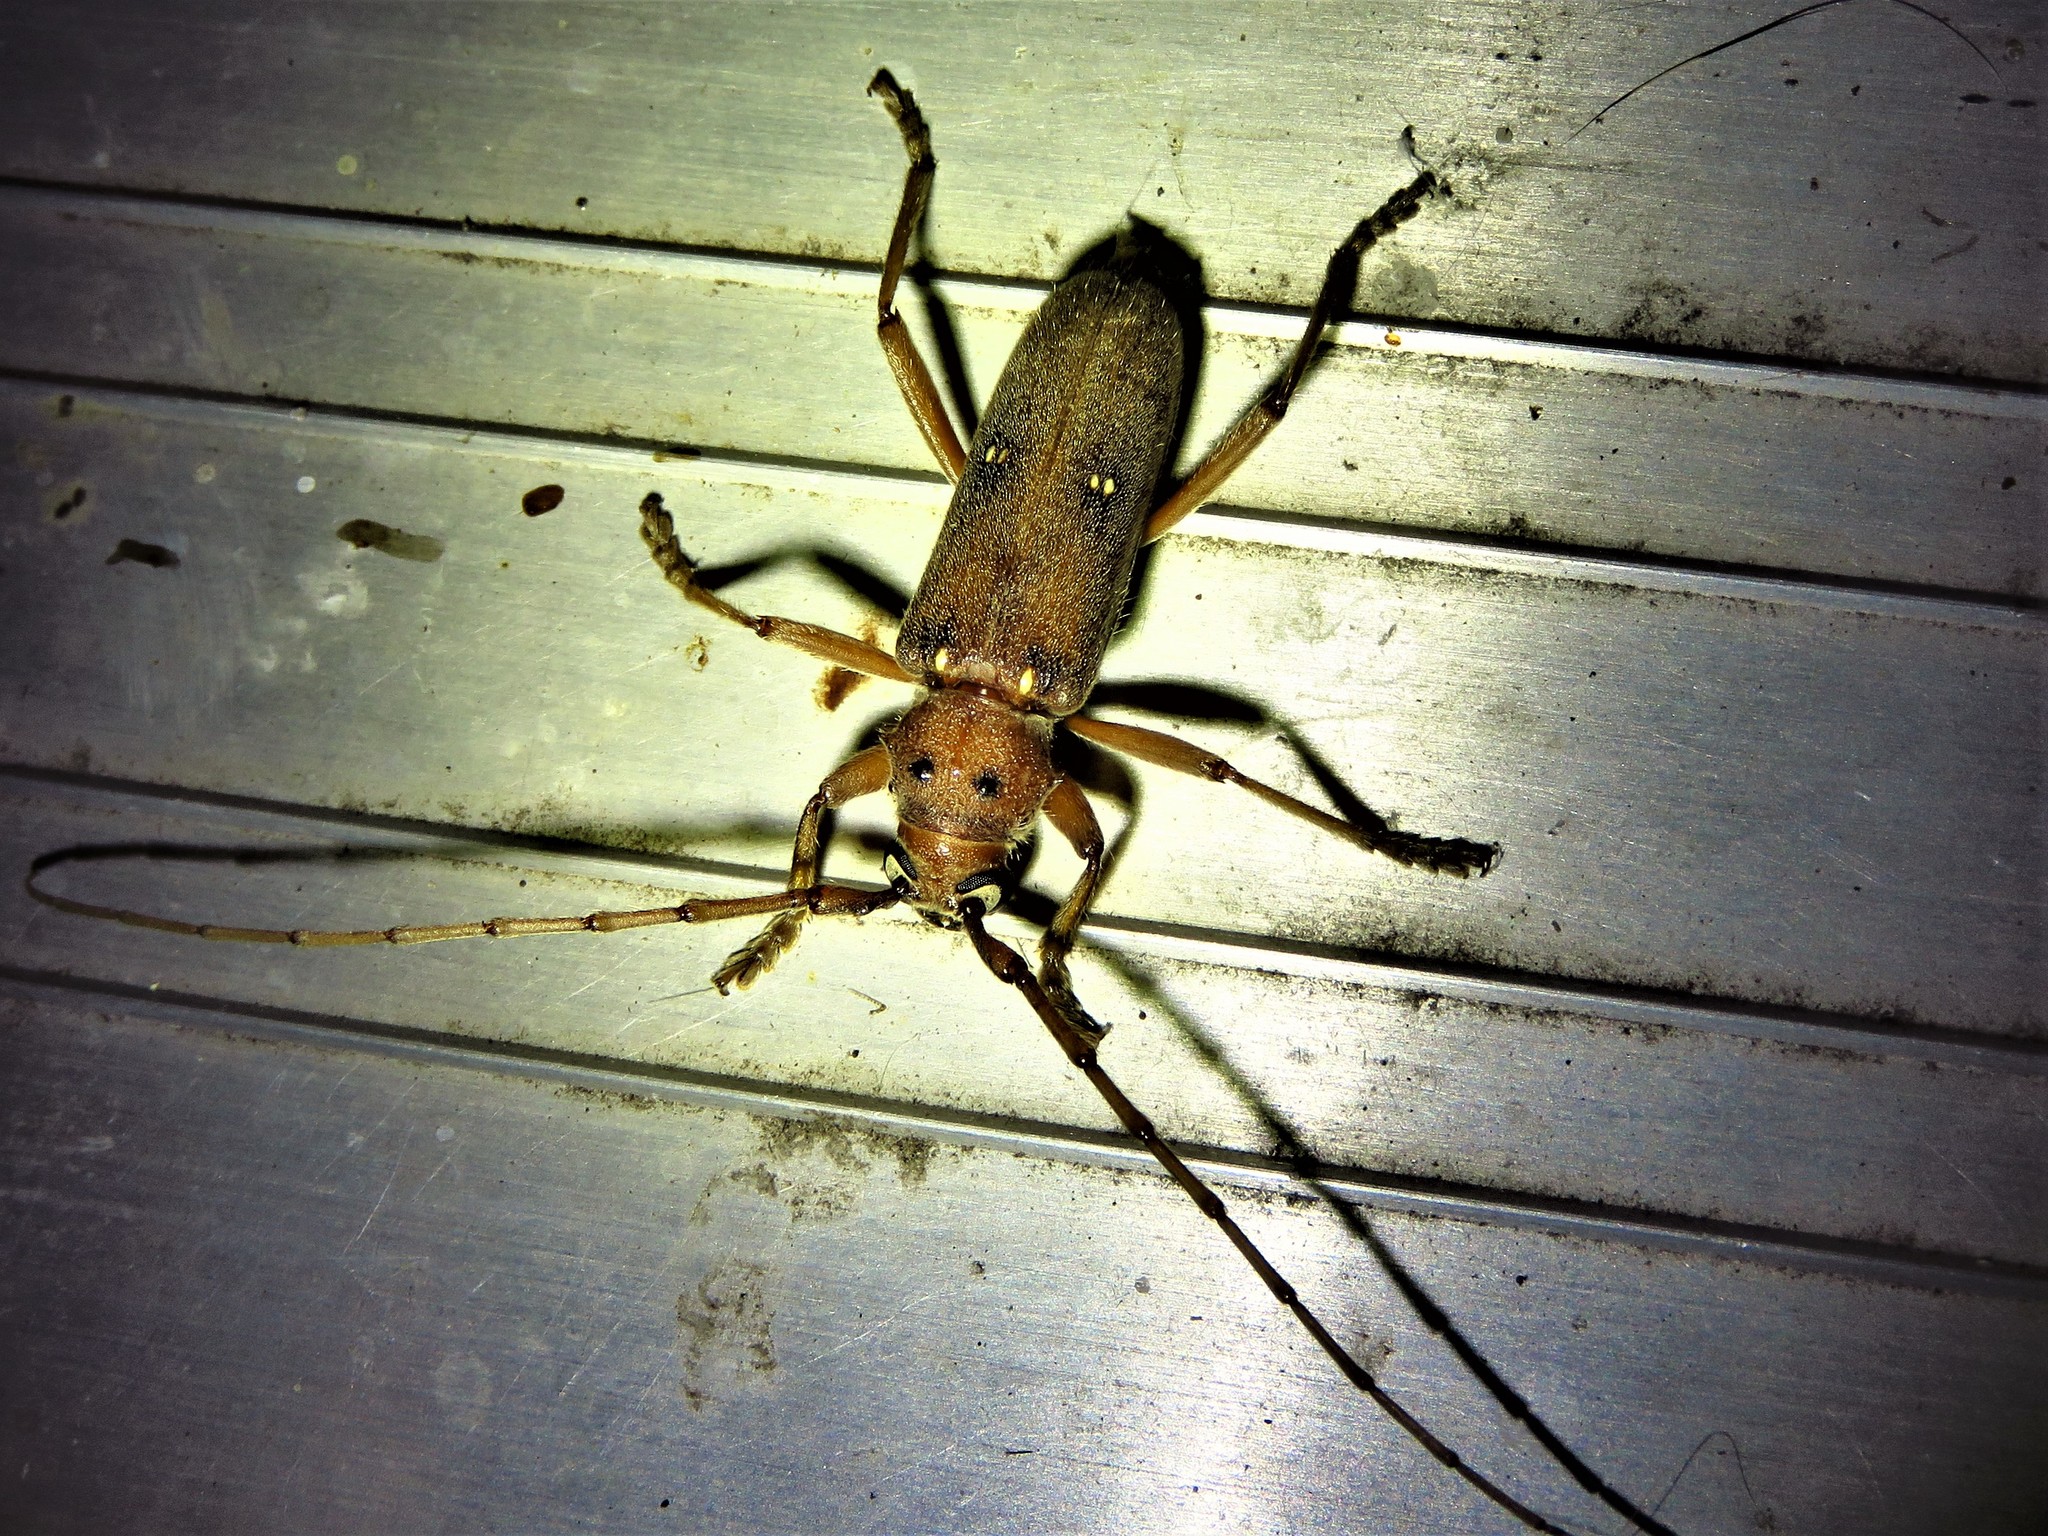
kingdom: Animalia
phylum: Arthropoda
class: Insecta
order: Coleoptera
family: Cerambycidae
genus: Eburia
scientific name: Eburia haldemani
